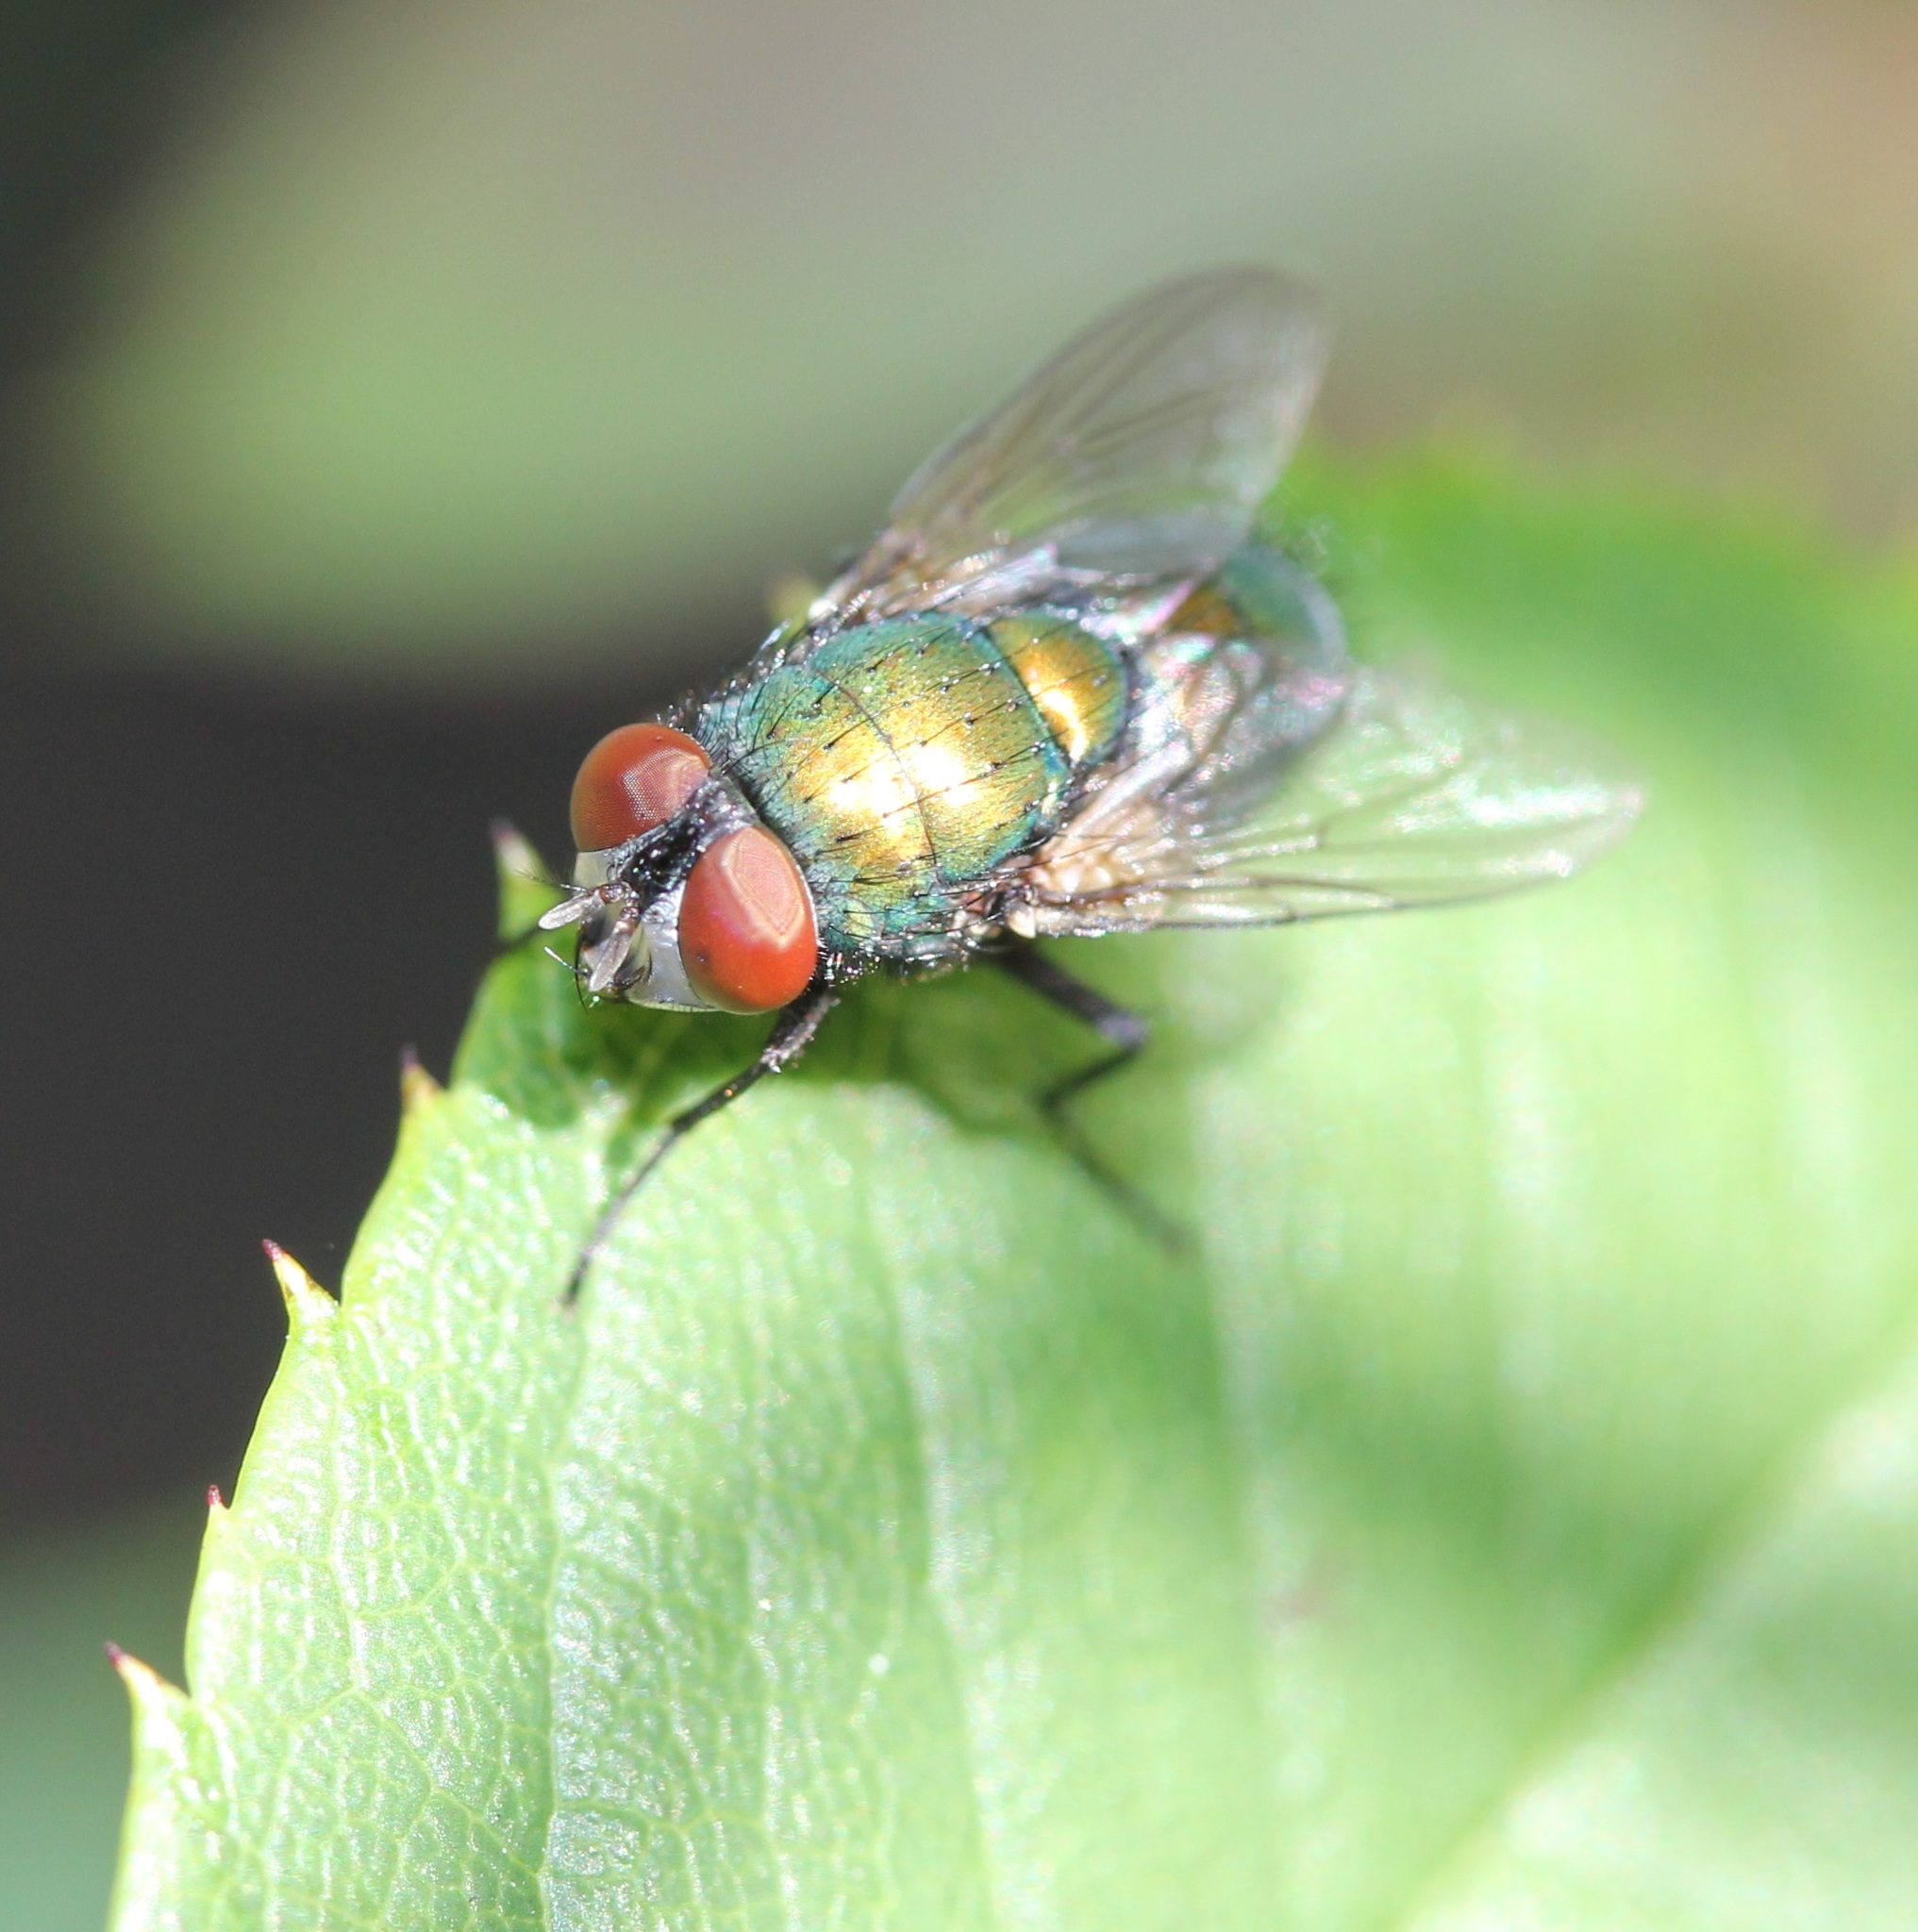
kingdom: Animalia
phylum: Arthropoda
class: Insecta
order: Diptera
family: Calliphoridae
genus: Lucilia
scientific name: Lucilia sericata
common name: Blow fly
